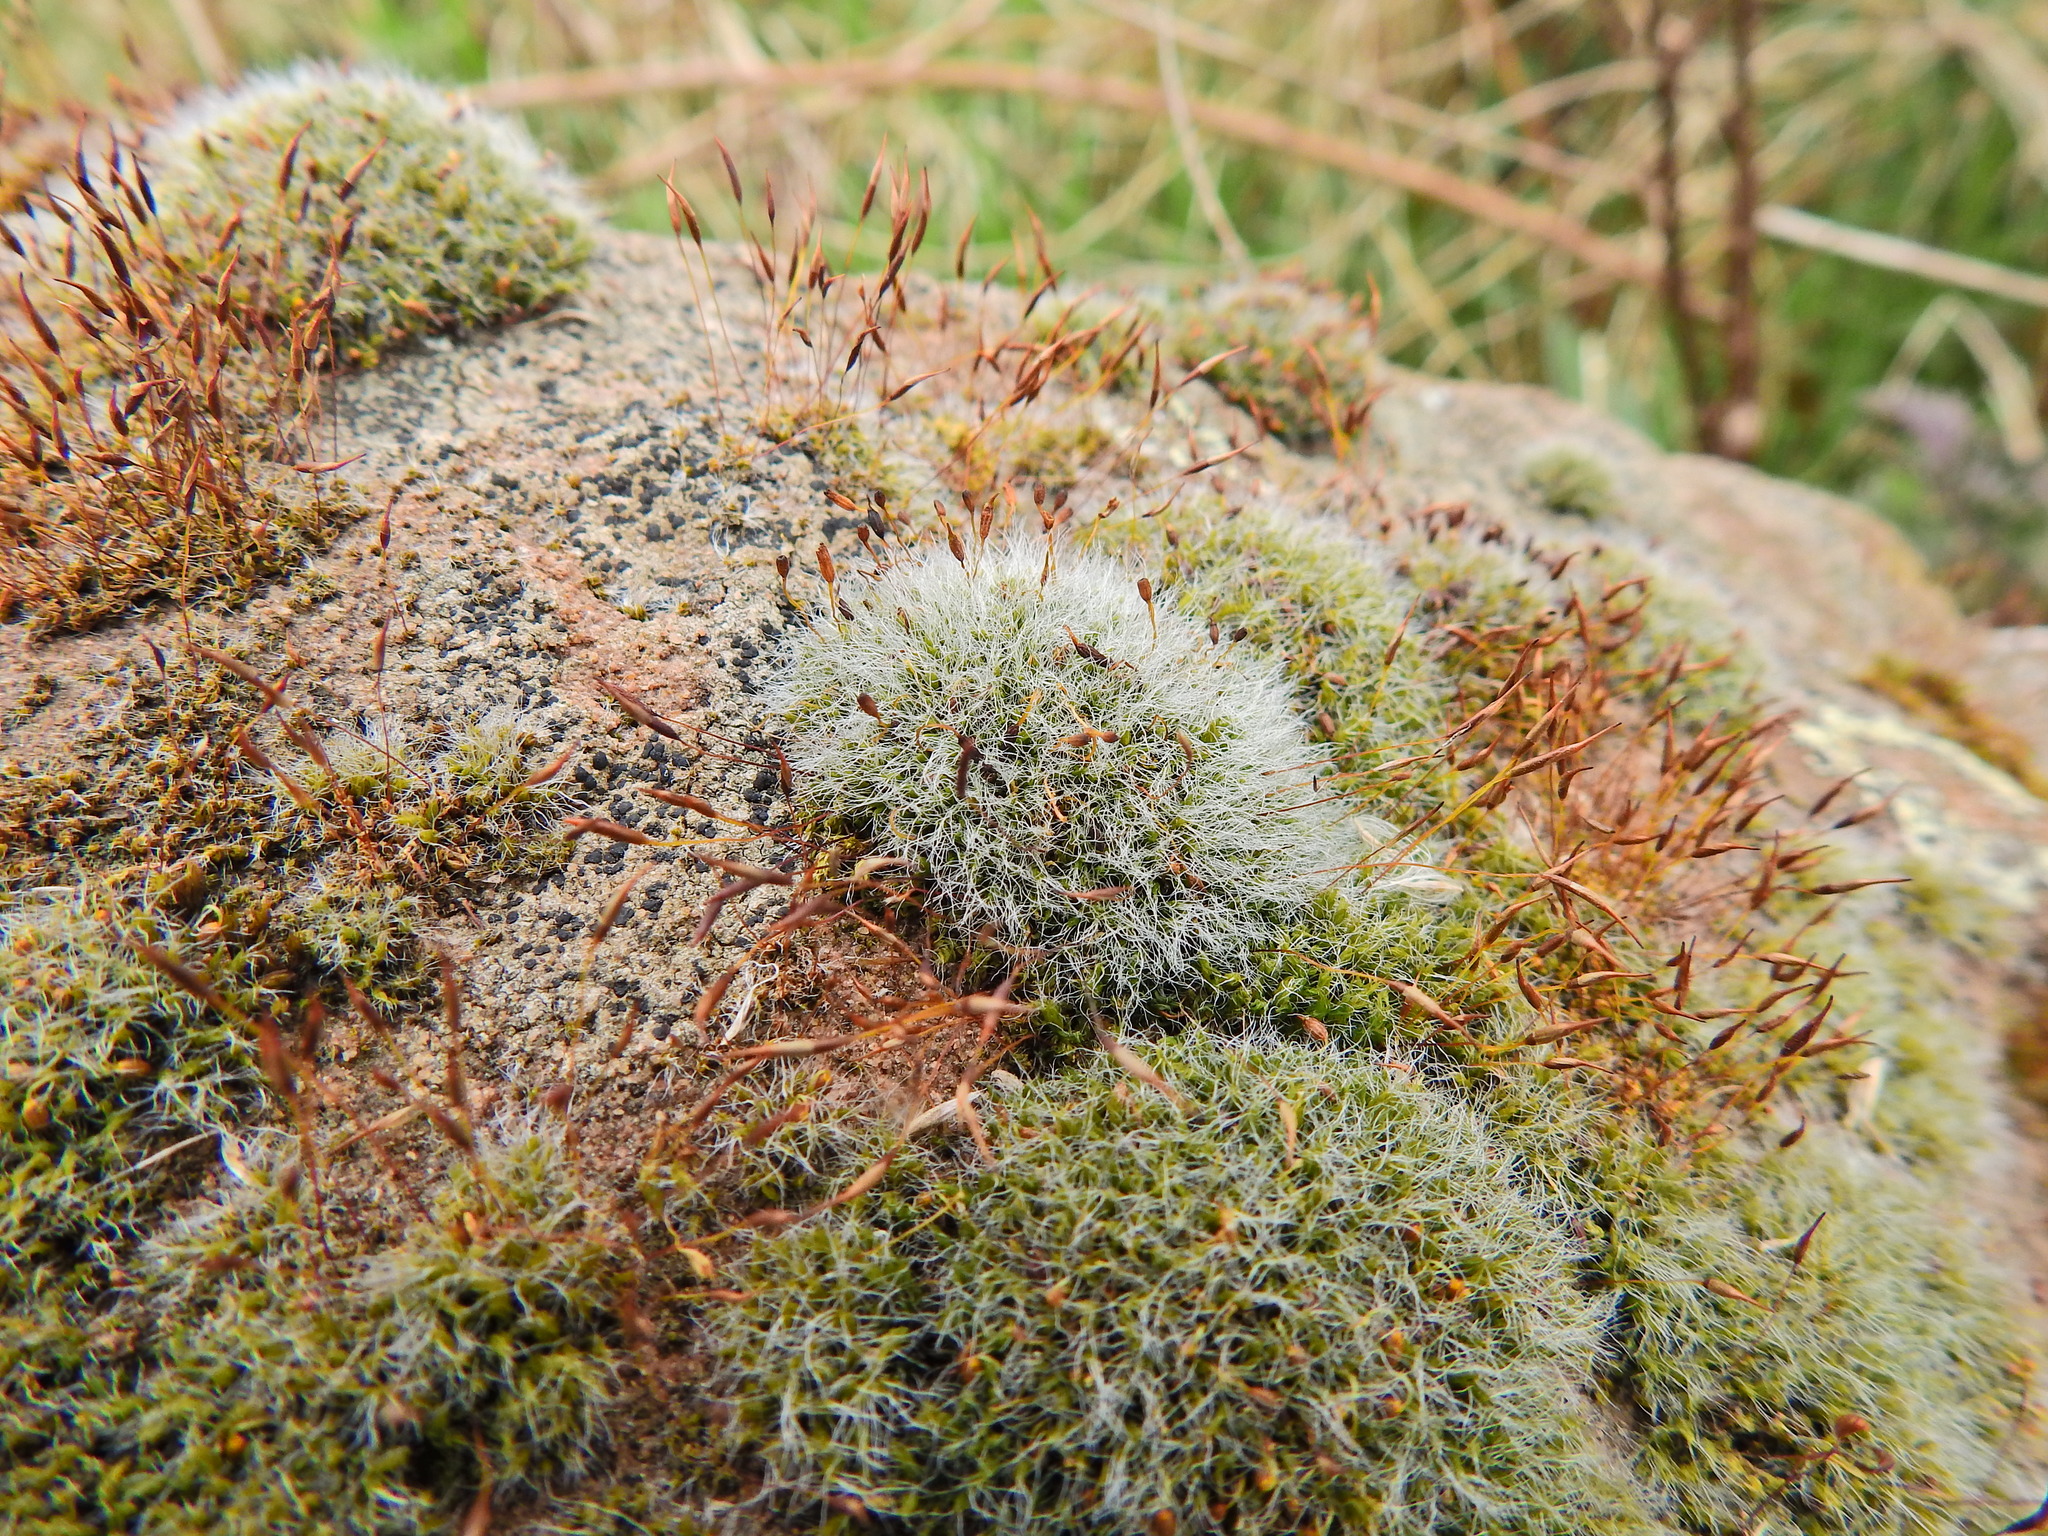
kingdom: Plantae
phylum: Bryophyta
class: Bryopsida
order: Grimmiales
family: Grimmiaceae
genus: Grimmia
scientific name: Grimmia pulvinata
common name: Grey-cushioned grimmia
